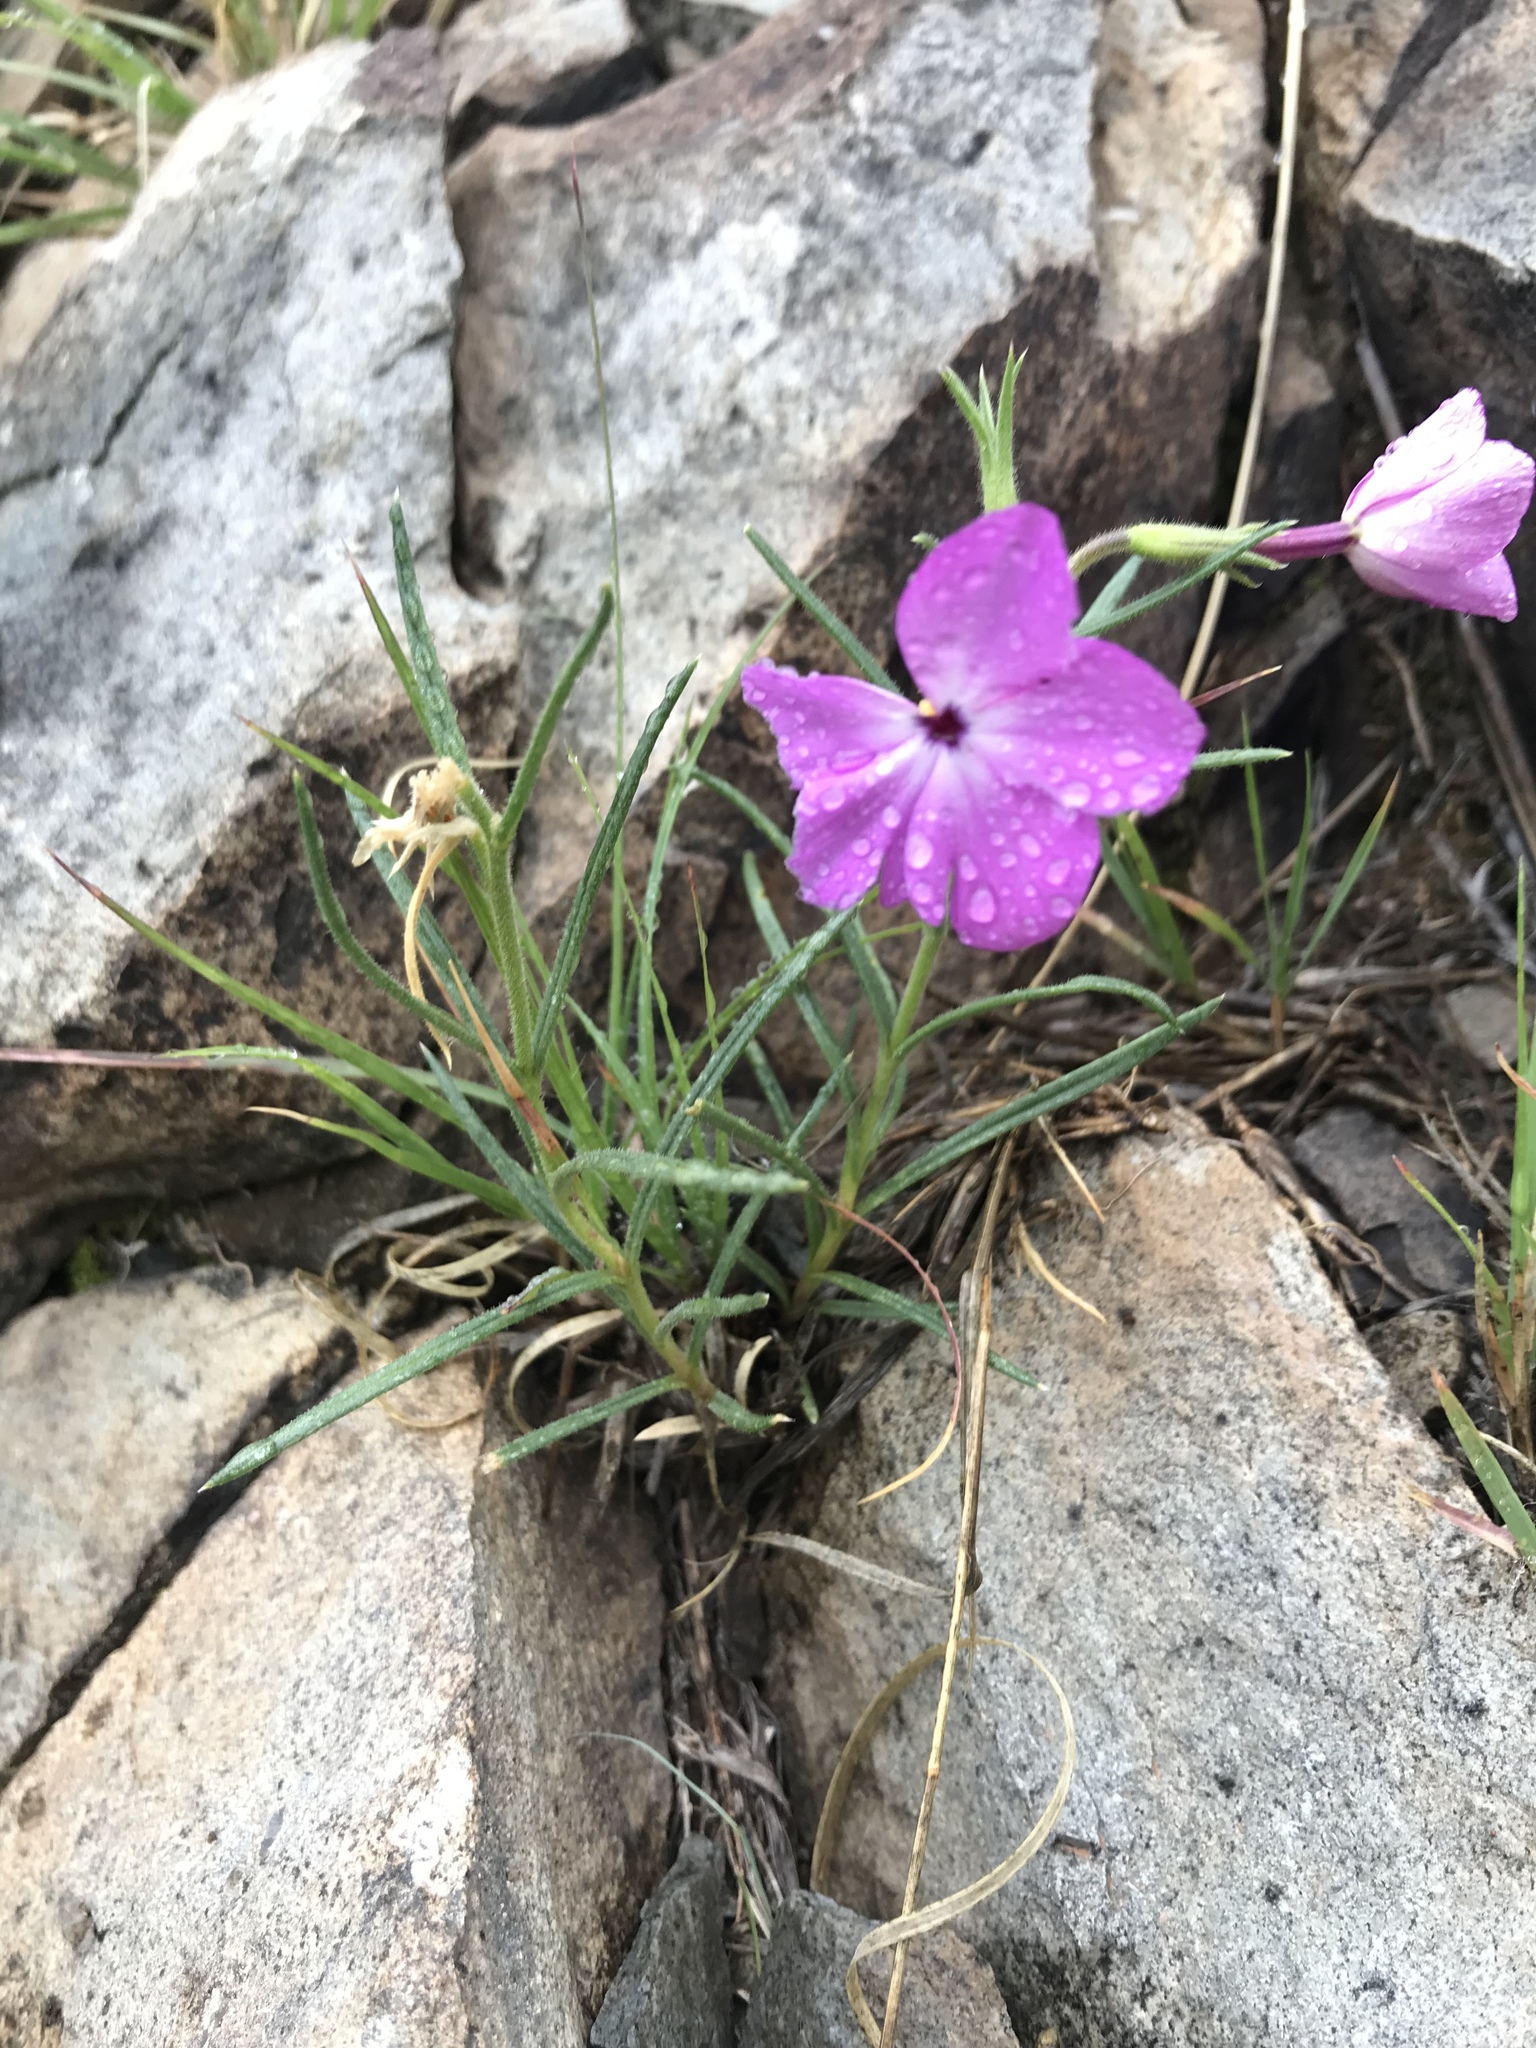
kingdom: Plantae
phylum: Tracheophyta
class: Magnoliopsida
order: Ericales
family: Polemoniaceae
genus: Phlox
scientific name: Phlox nana
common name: Santa fe phlox
